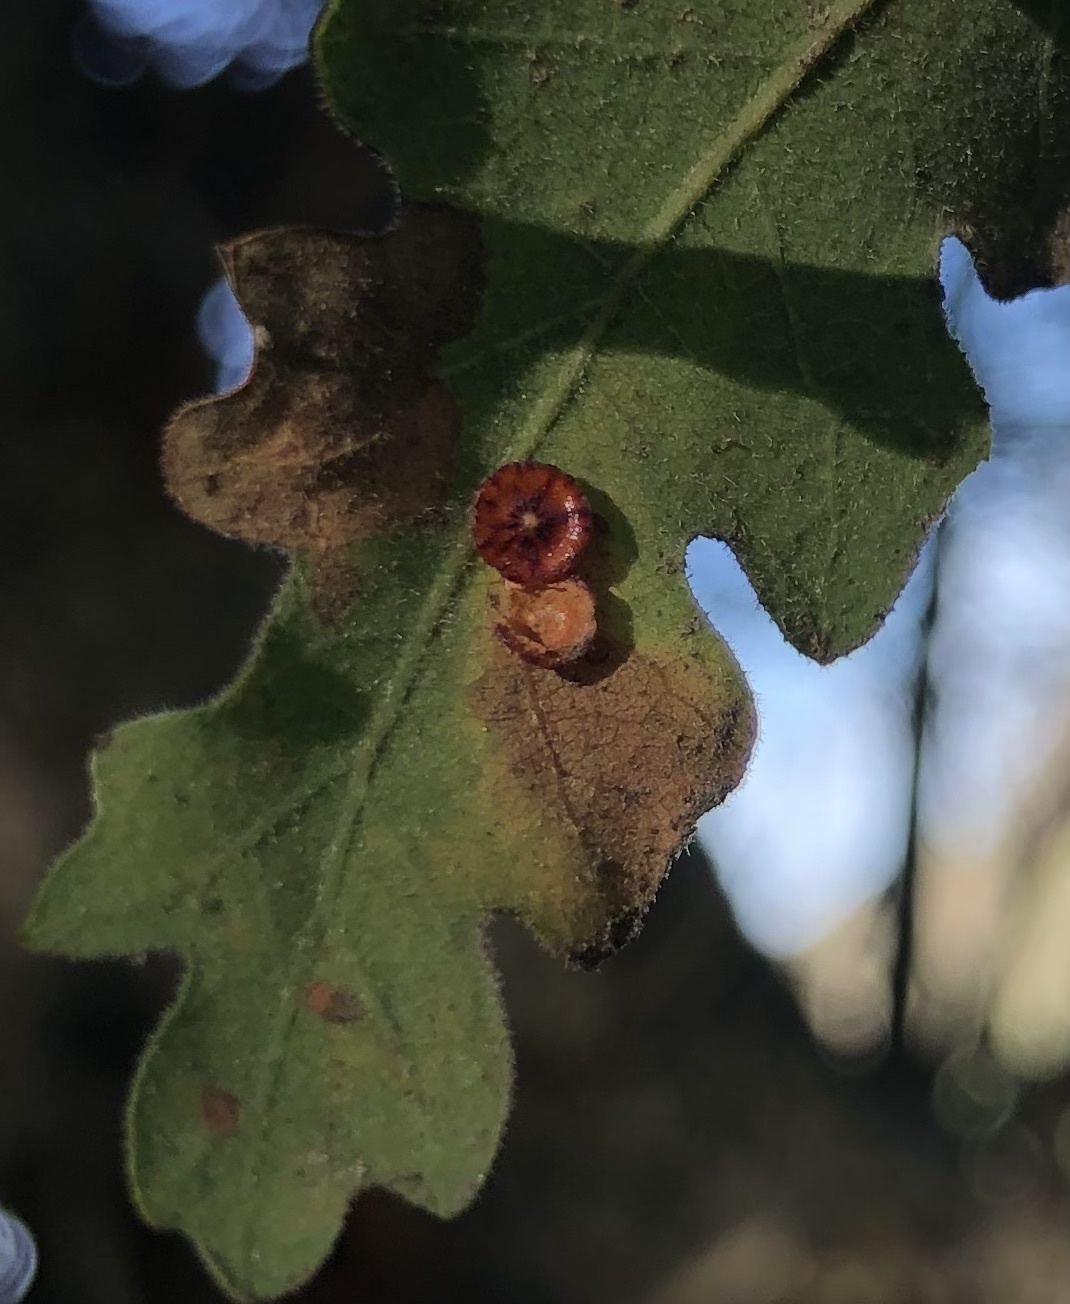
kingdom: Animalia
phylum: Arthropoda
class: Insecta
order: Hymenoptera
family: Cynipidae
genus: Andricus
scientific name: Andricus
